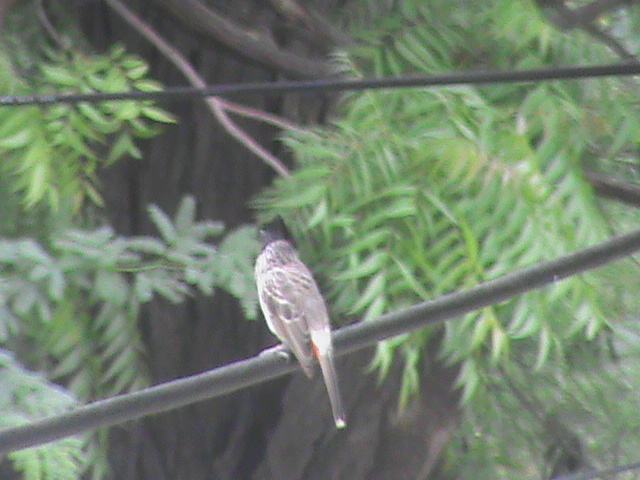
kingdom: Animalia
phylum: Chordata
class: Aves
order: Passeriformes
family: Pycnonotidae
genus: Pycnonotus
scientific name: Pycnonotus cafer
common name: Red-vented bulbul
